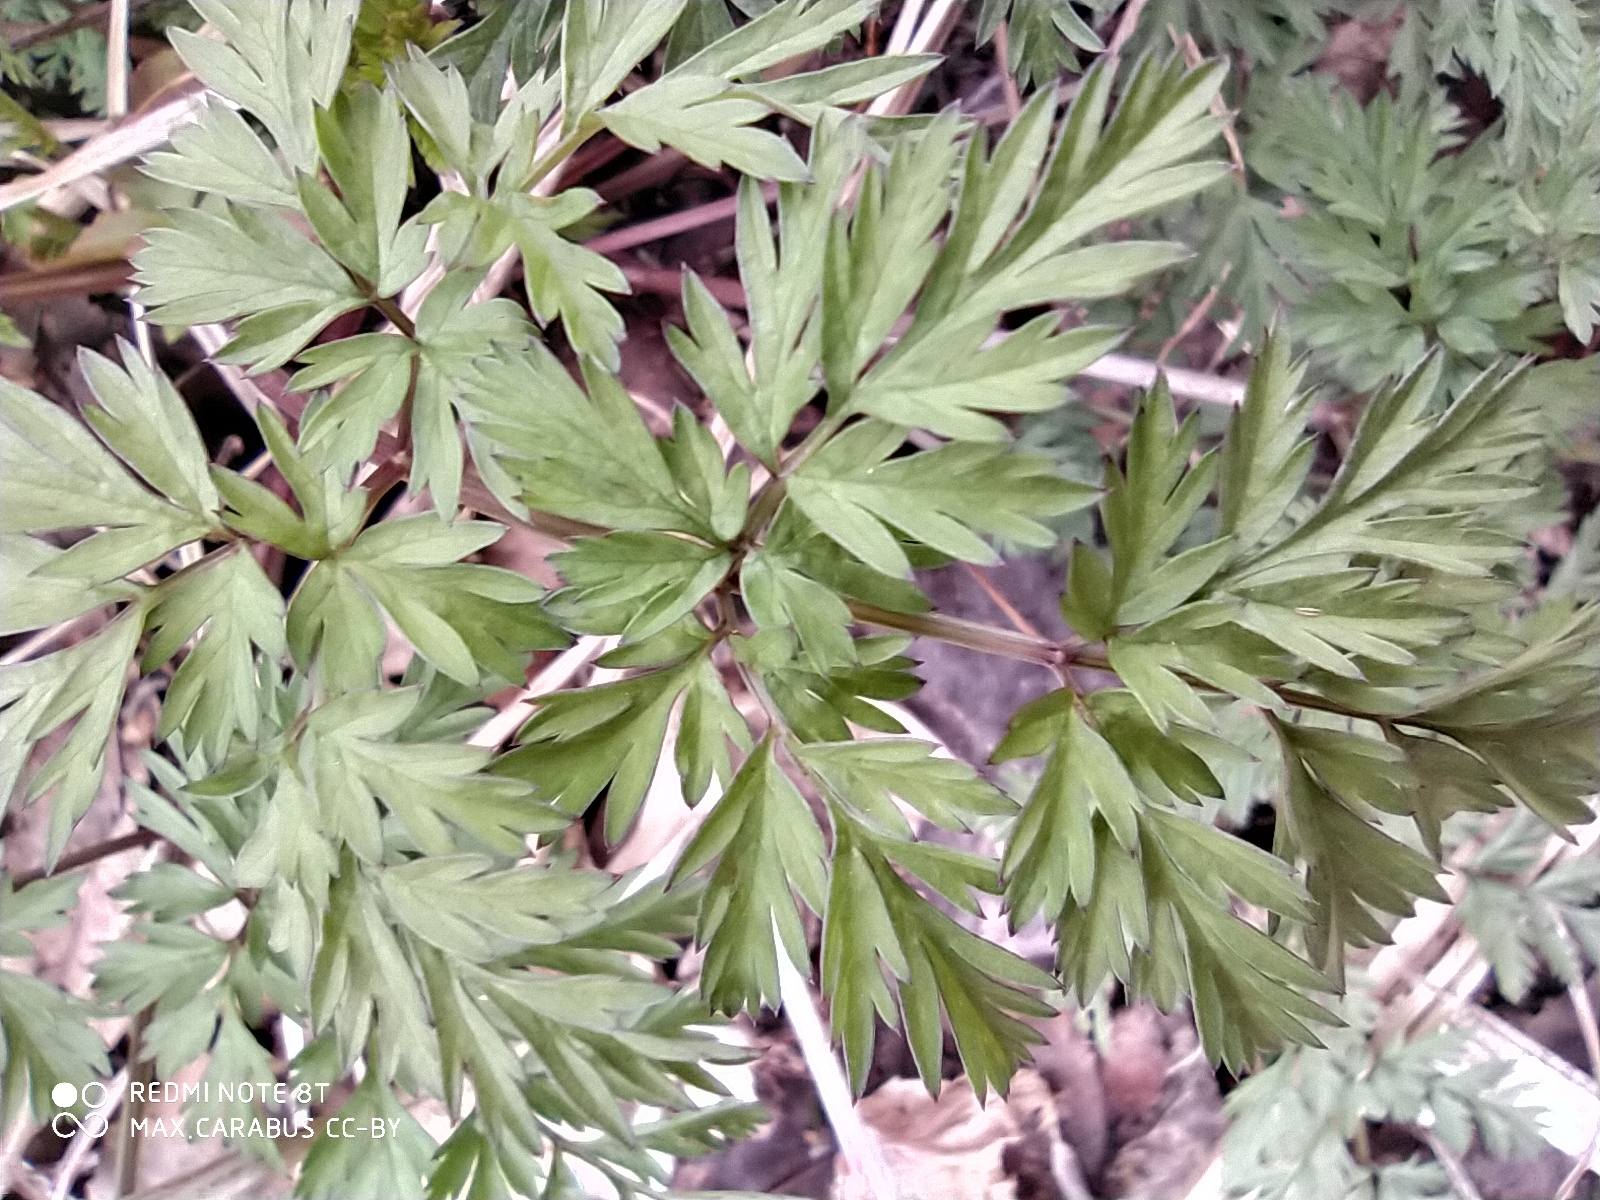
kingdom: Plantae
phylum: Tracheophyta
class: Magnoliopsida
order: Apiales
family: Apiaceae
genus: Anthriscus
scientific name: Anthriscus sylvestris
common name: Cow parsley
